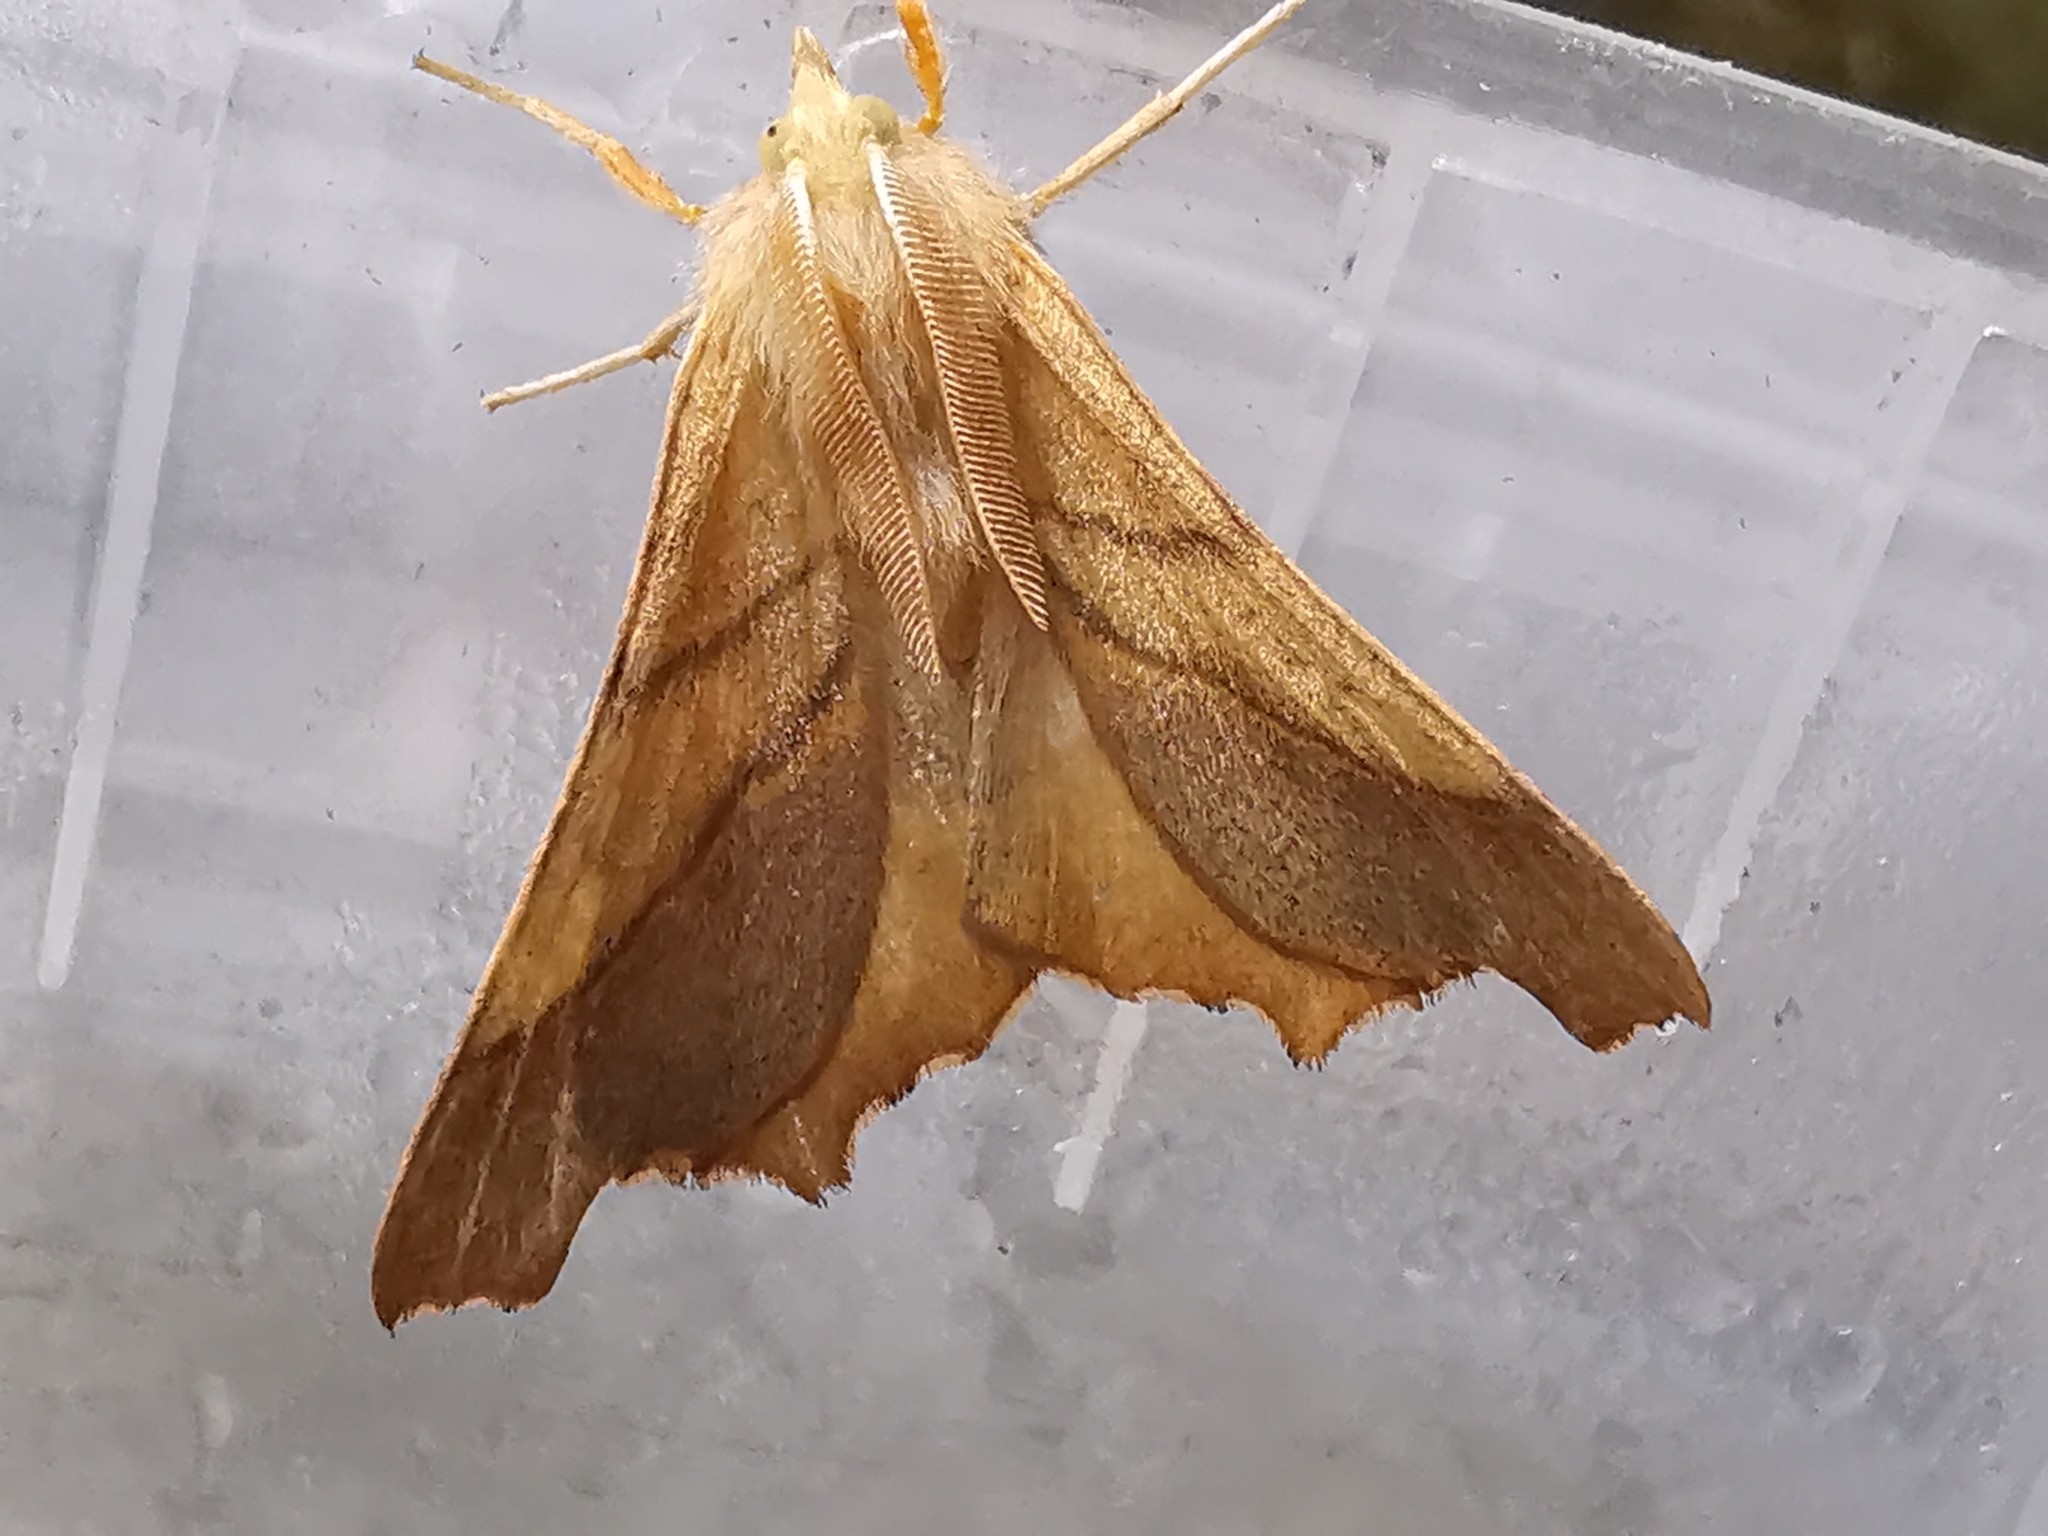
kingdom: Animalia
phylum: Arthropoda
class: Insecta
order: Lepidoptera
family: Geometridae
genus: Ennomos
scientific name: Ennomos fuscantaria
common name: Dusky thorn
